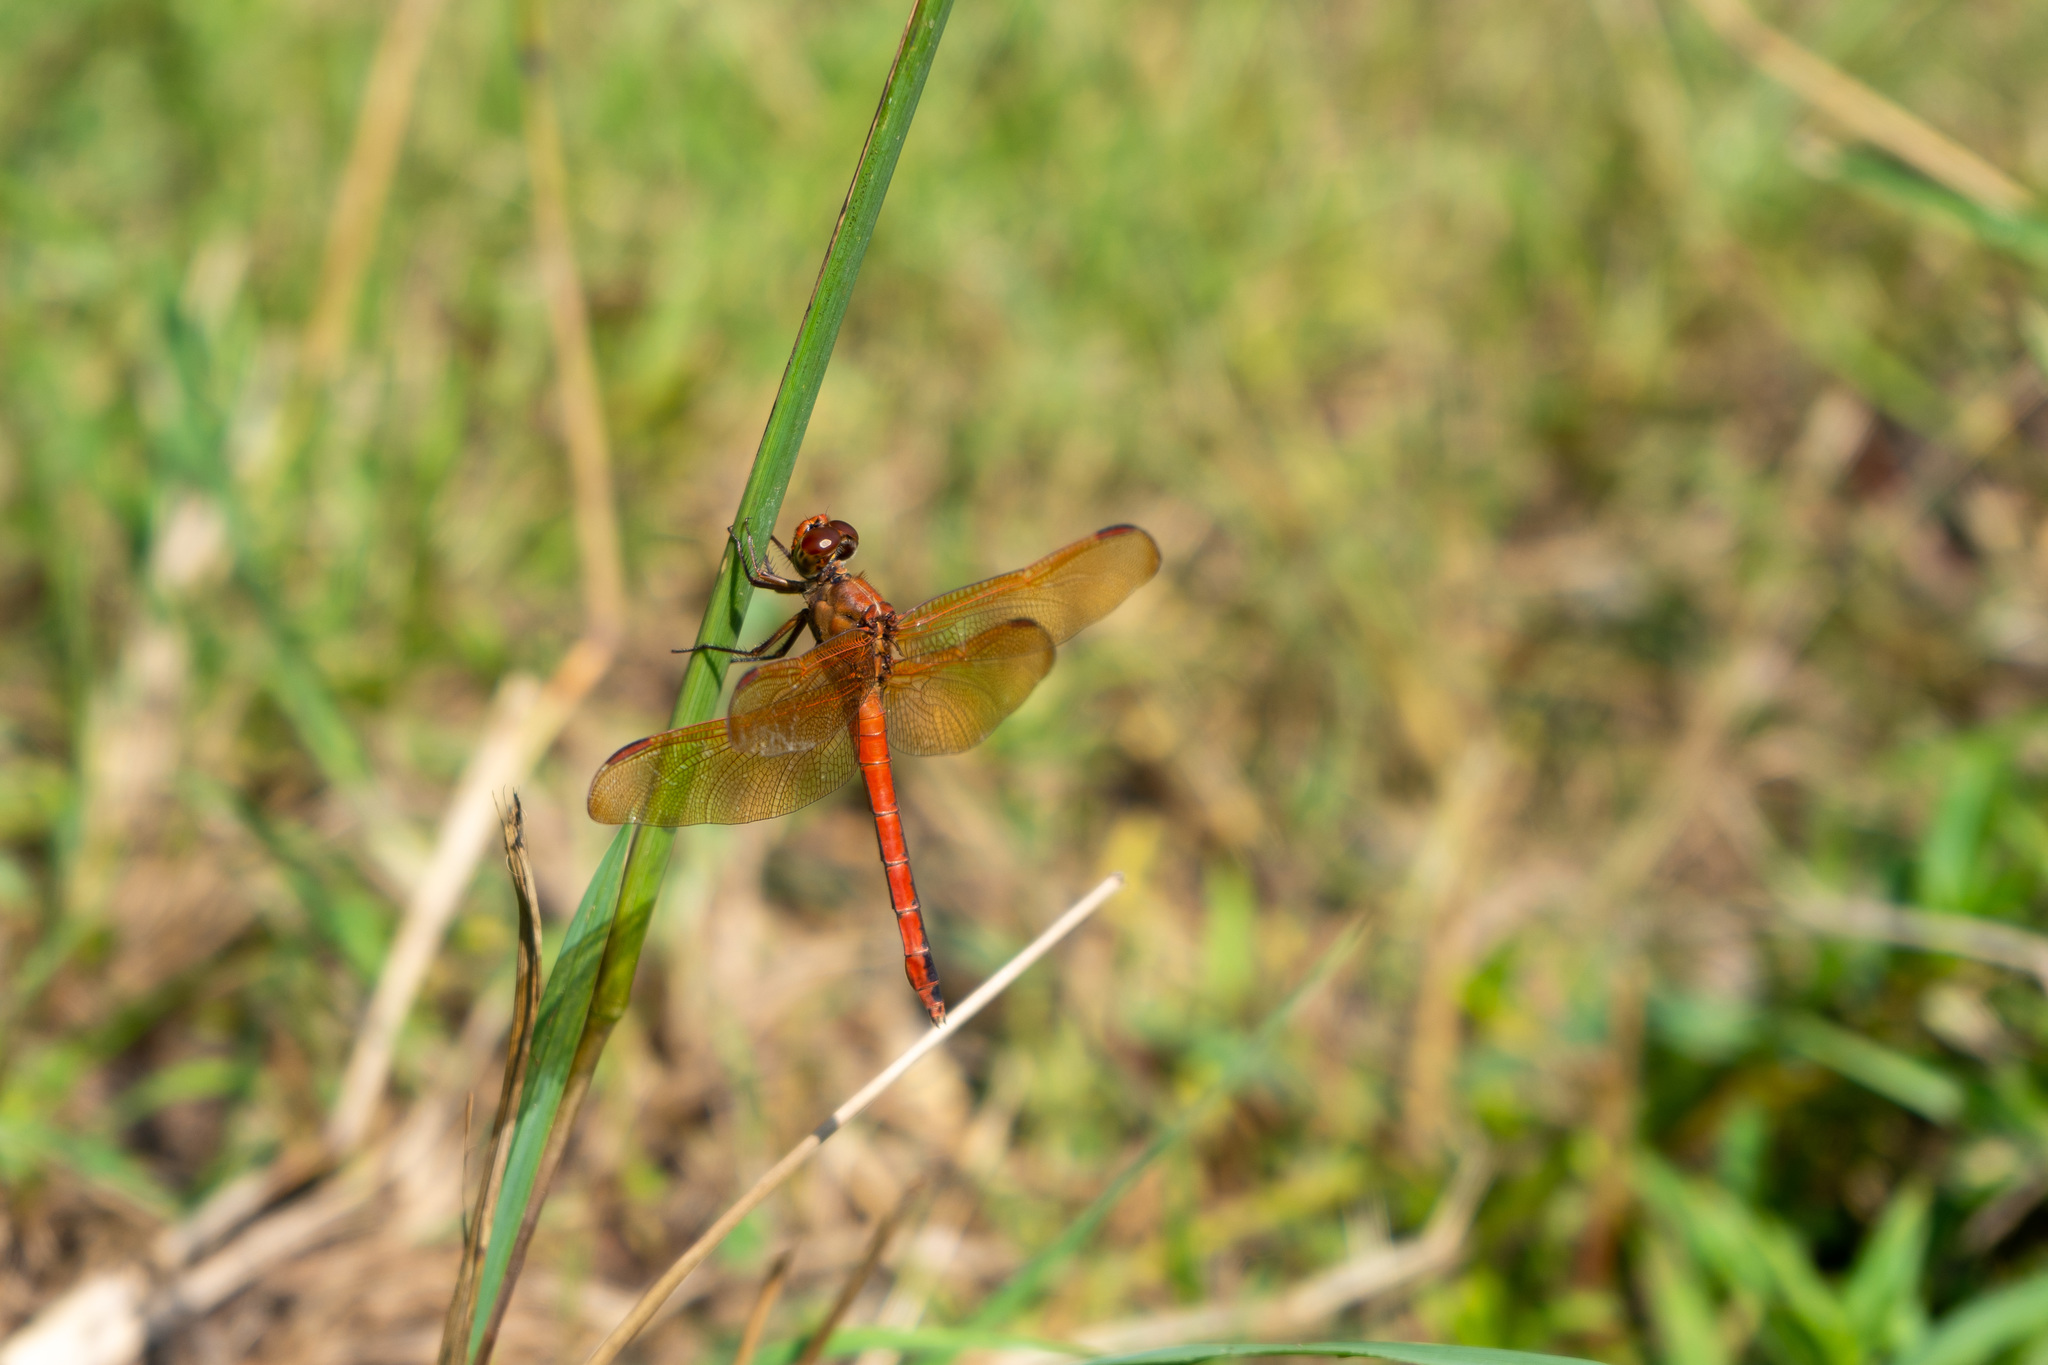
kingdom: Animalia
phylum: Arthropoda
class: Insecta
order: Odonata
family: Libellulidae
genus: Libellula
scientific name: Libellula needhami
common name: Needham's skimmer
